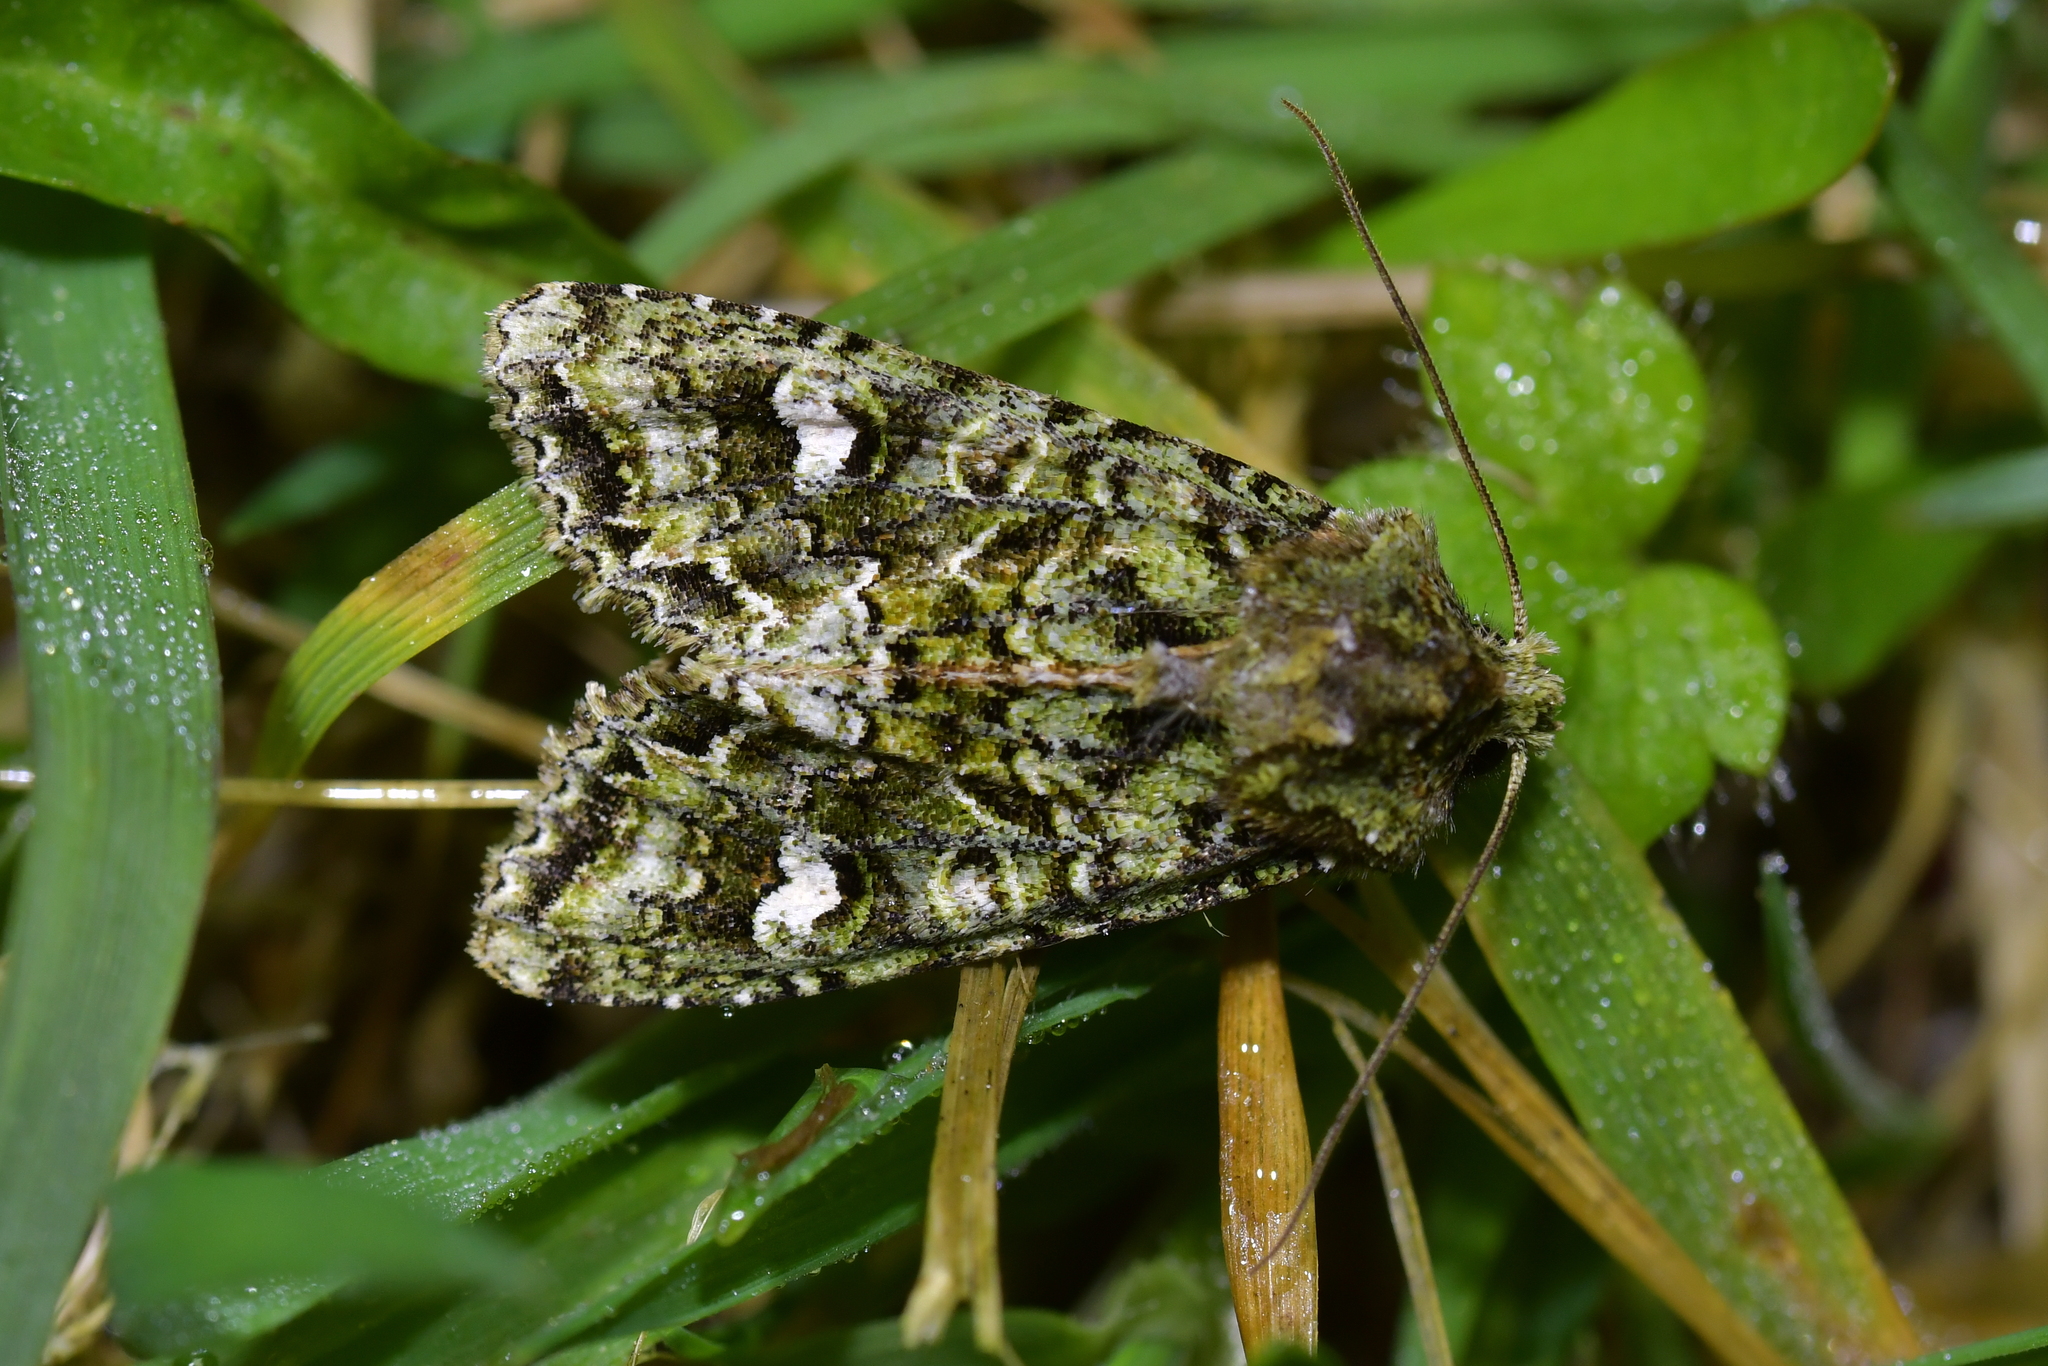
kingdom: Animalia
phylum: Arthropoda
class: Insecta
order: Lepidoptera
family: Noctuidae
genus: Ichneutica
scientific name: Ichneutica
